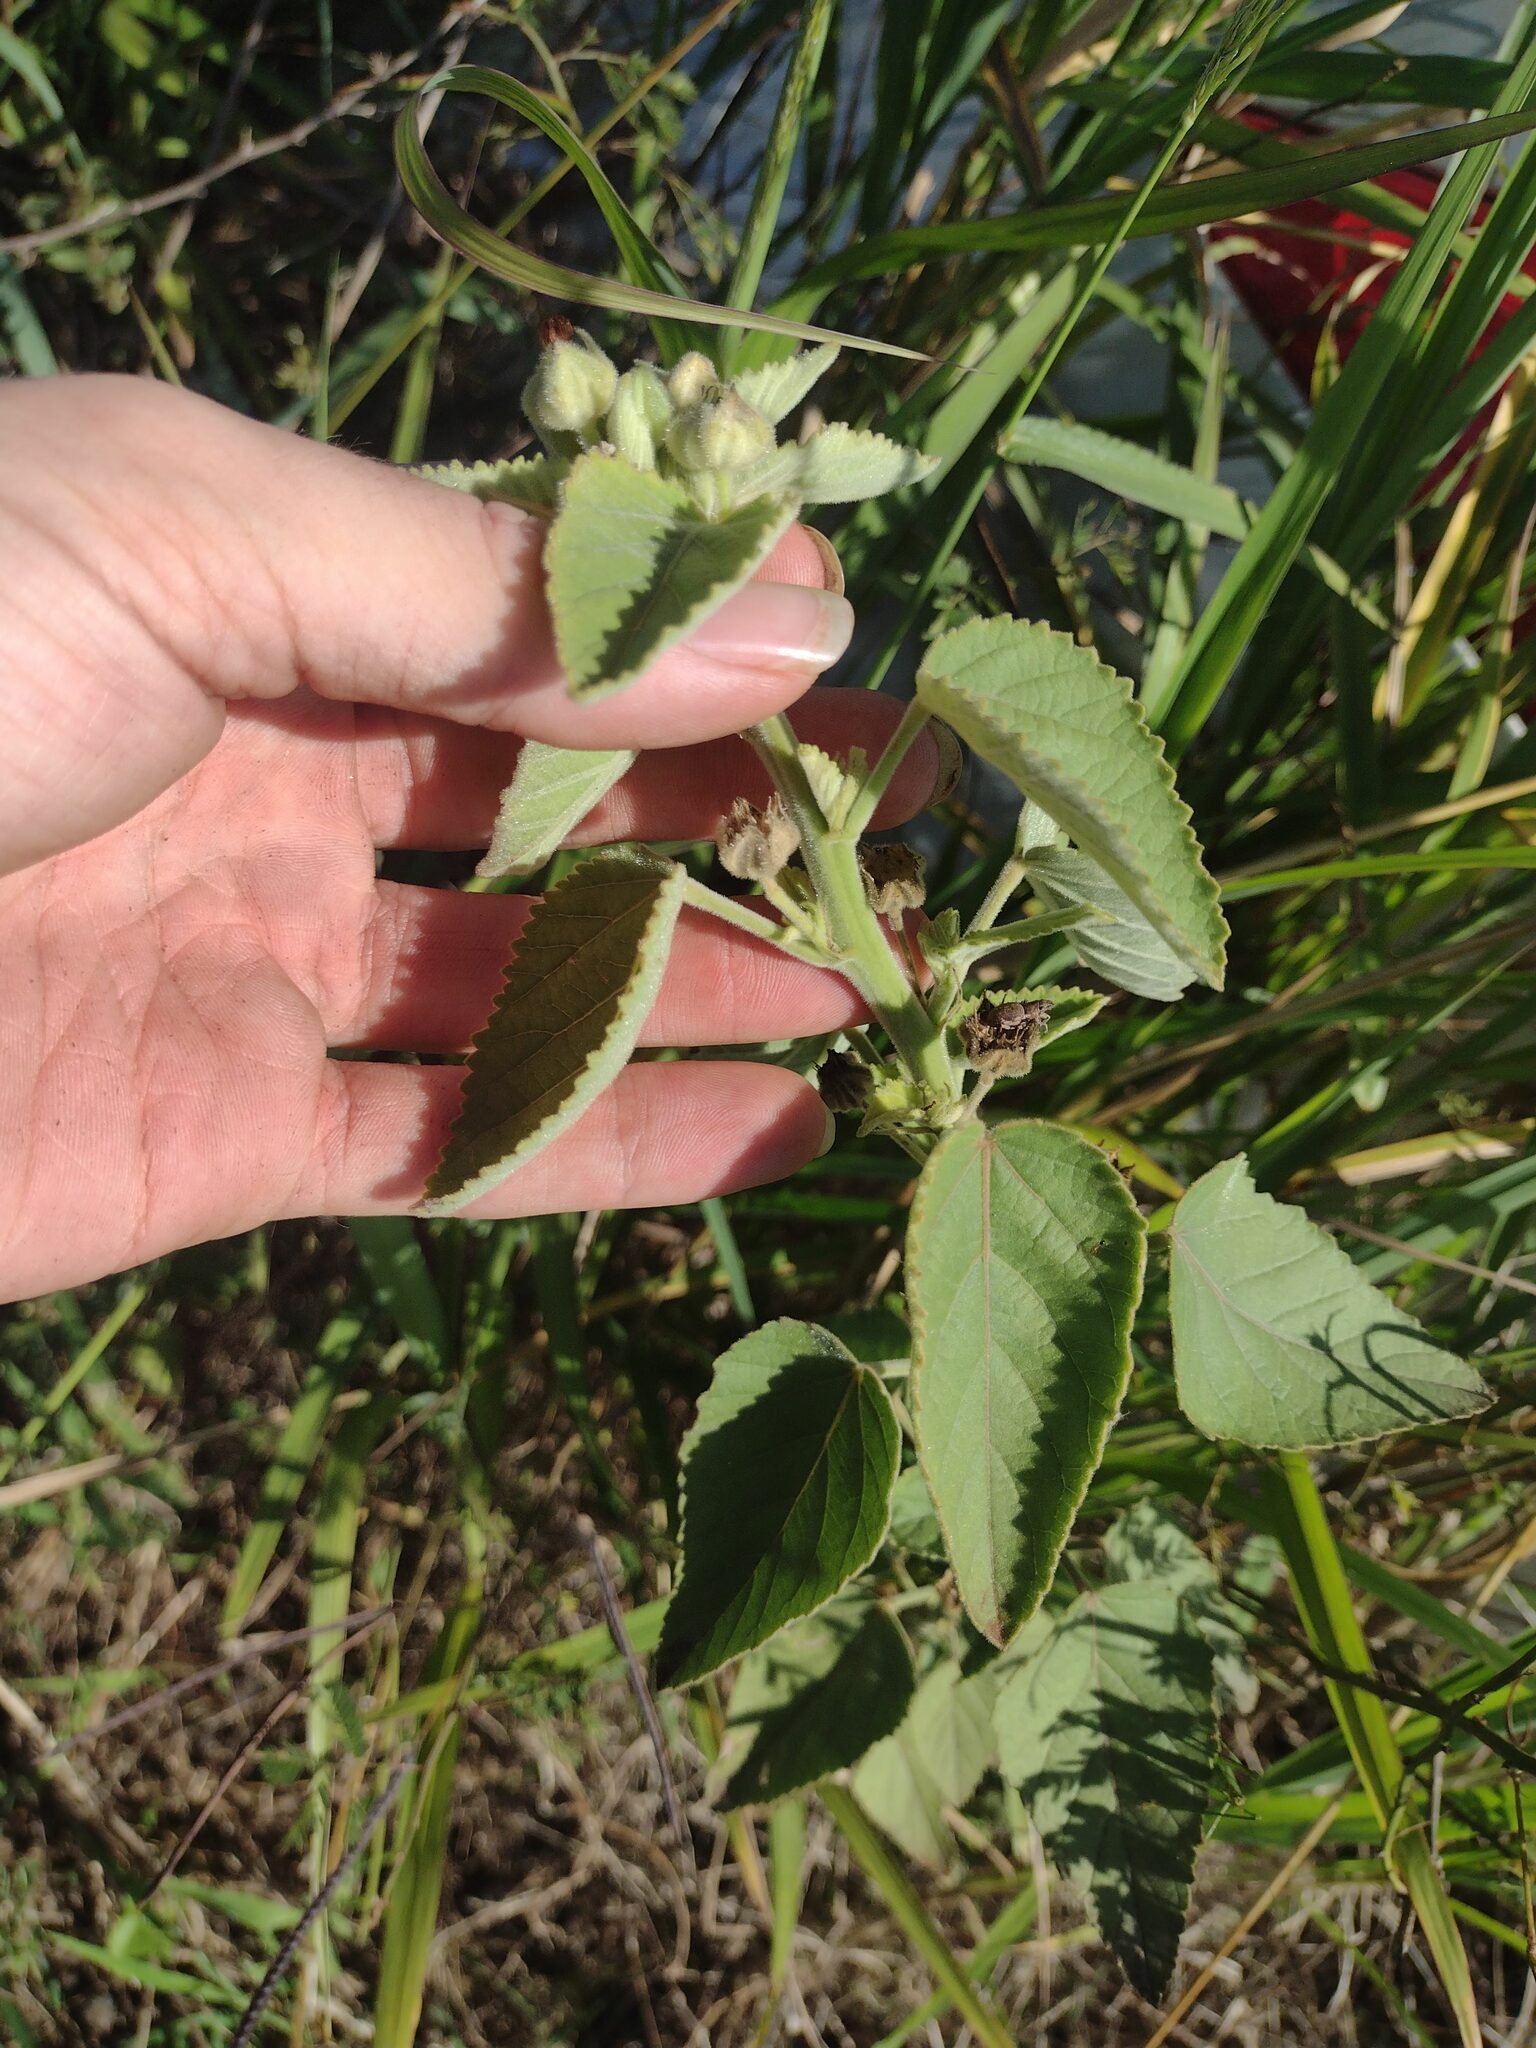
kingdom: Plantae
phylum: Tracheophyta
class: Magnoliopsida
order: Malvales
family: Malvaceae
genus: Sida
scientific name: Sida cordifolia
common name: Ilima
